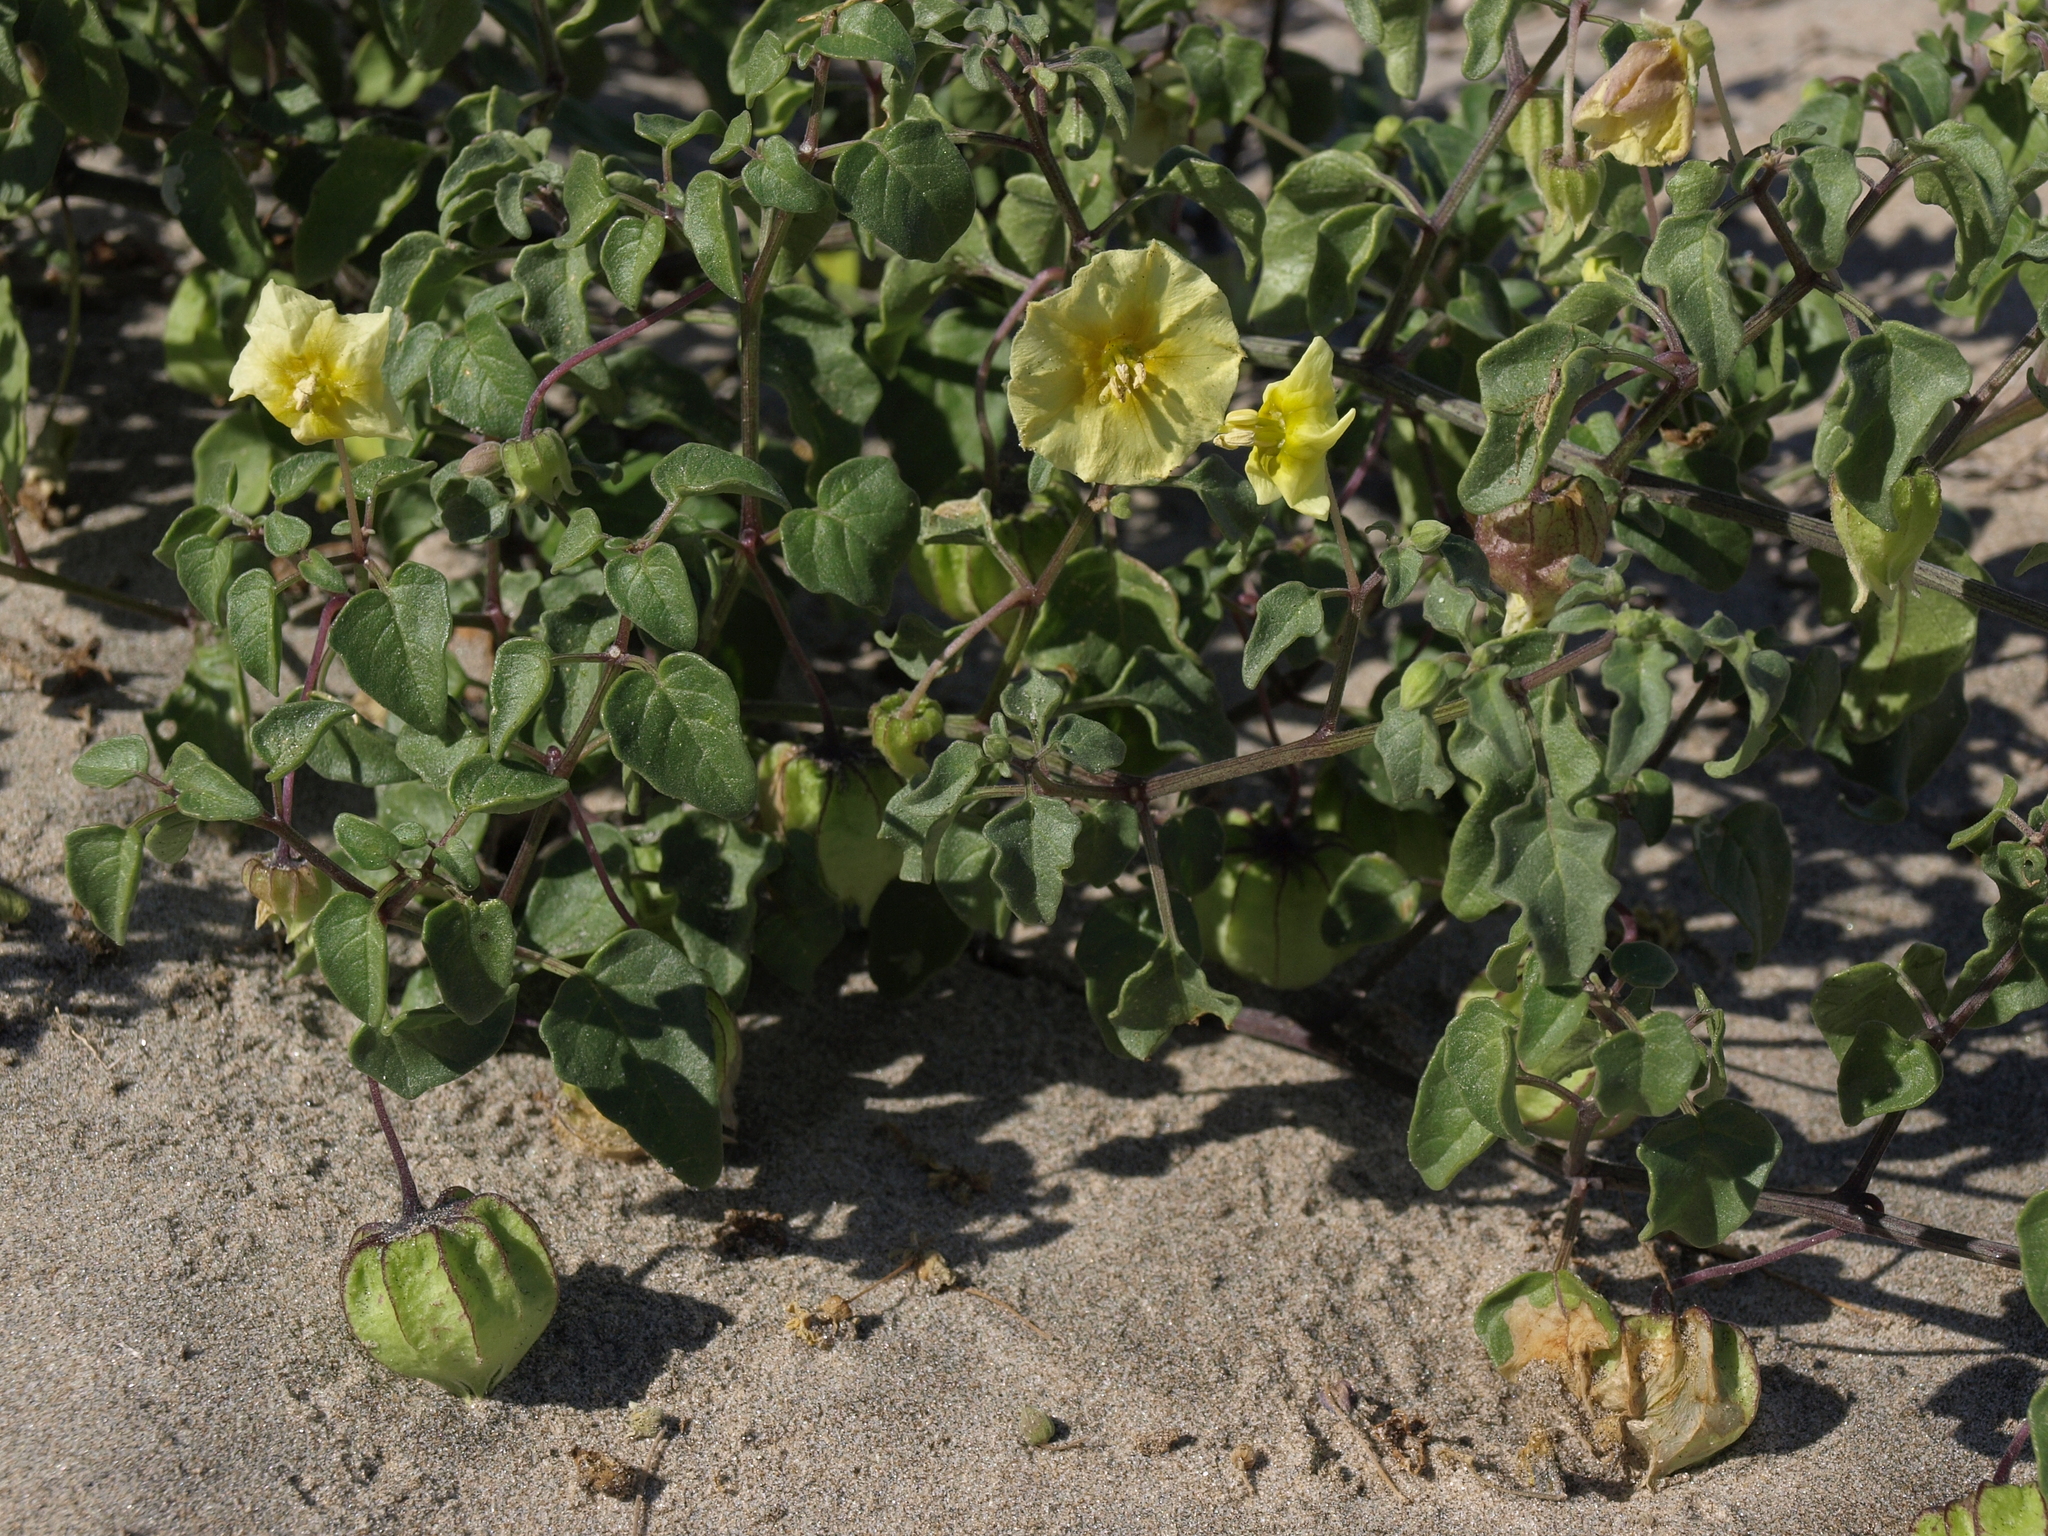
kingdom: Plantae
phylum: Tracheophyta
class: Magnoliopsida
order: Solanales
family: Solanaceae
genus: Physalis
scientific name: Physalis crassifolia
